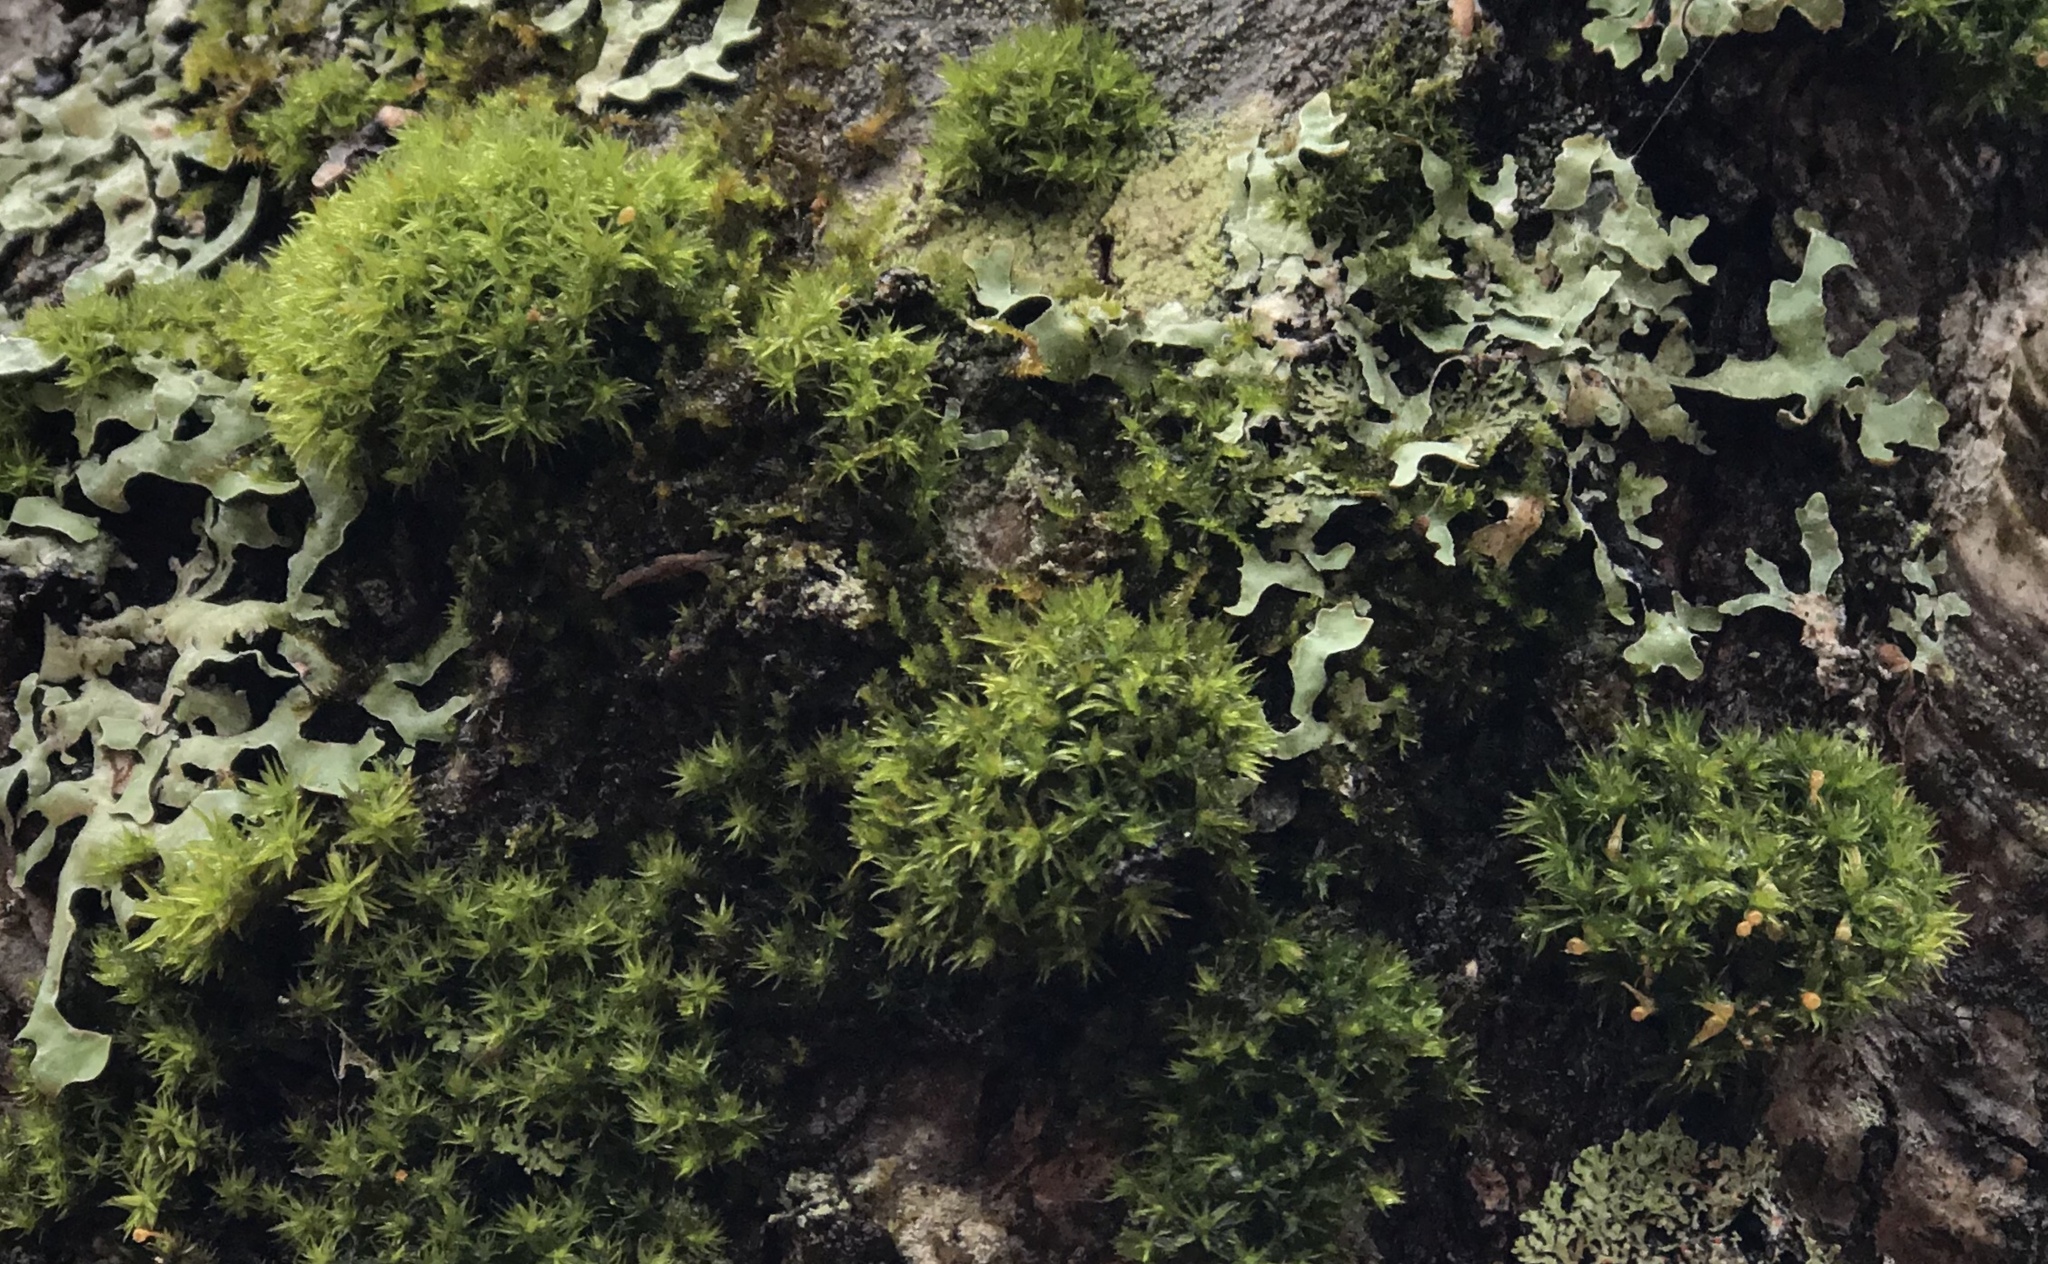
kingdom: Plantae
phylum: Bryophyta
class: Bryopsida
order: Orthotrichales
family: Orthotrichaceae
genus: Ulota
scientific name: Ulota crispula
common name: Crisped pincushion
